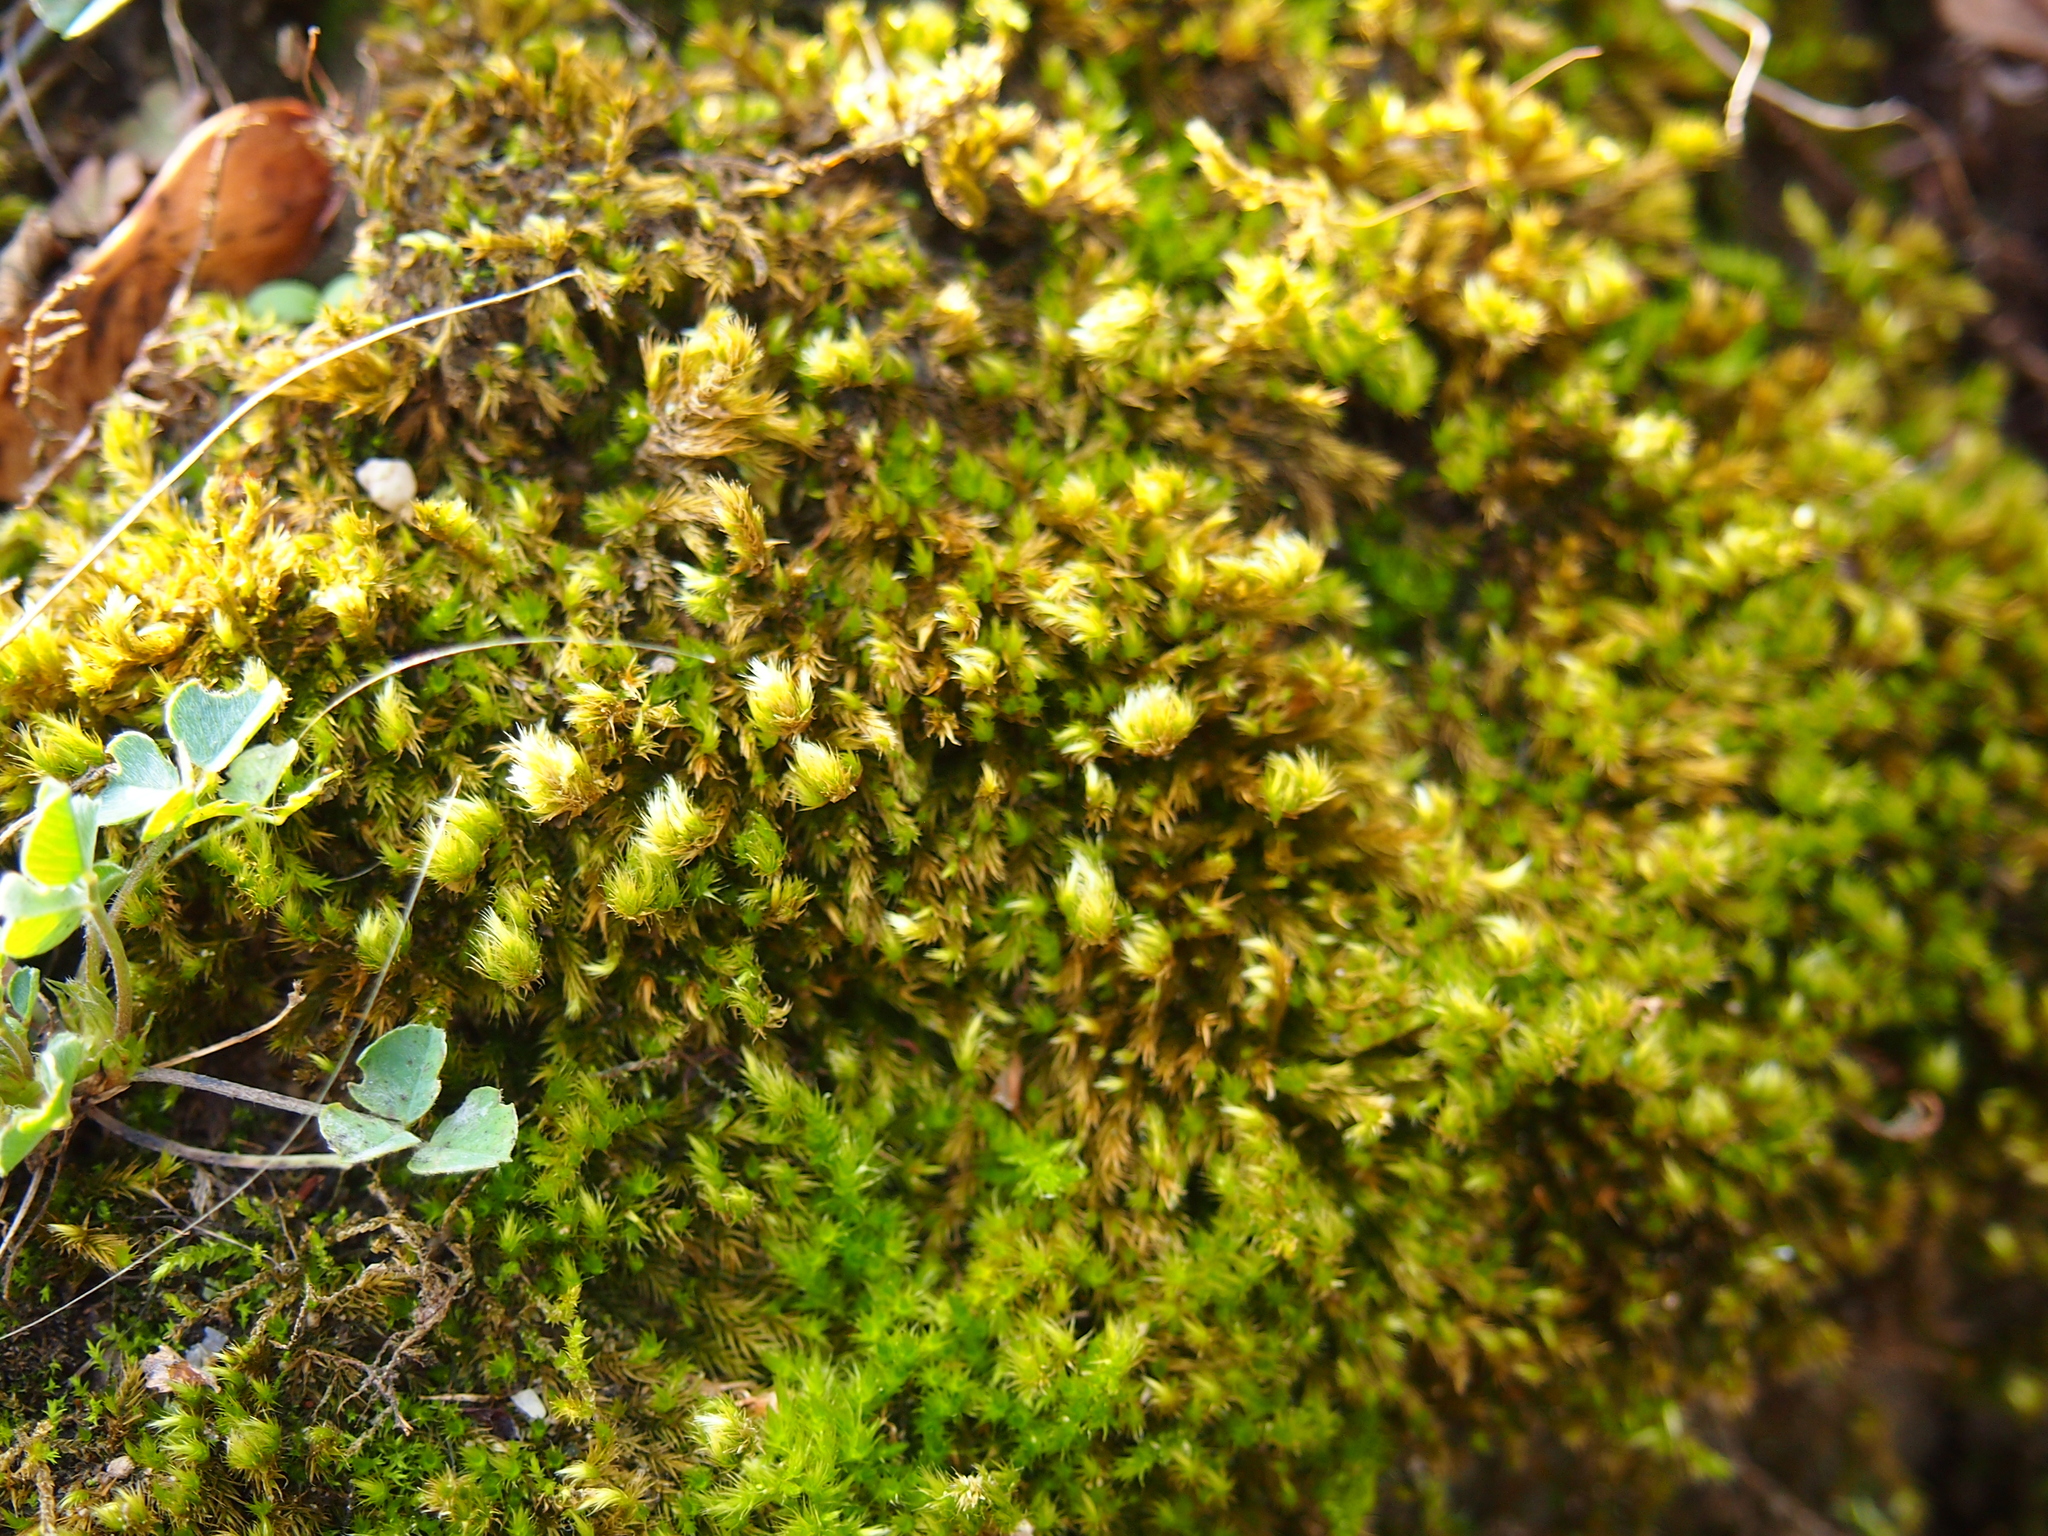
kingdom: Plantae
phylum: Bryophyta
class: Bryopsida
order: Hypnales
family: Brachytheciaceae
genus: Homalothecium
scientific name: Homalothecium sericeum
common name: Silky wall feather-moss
